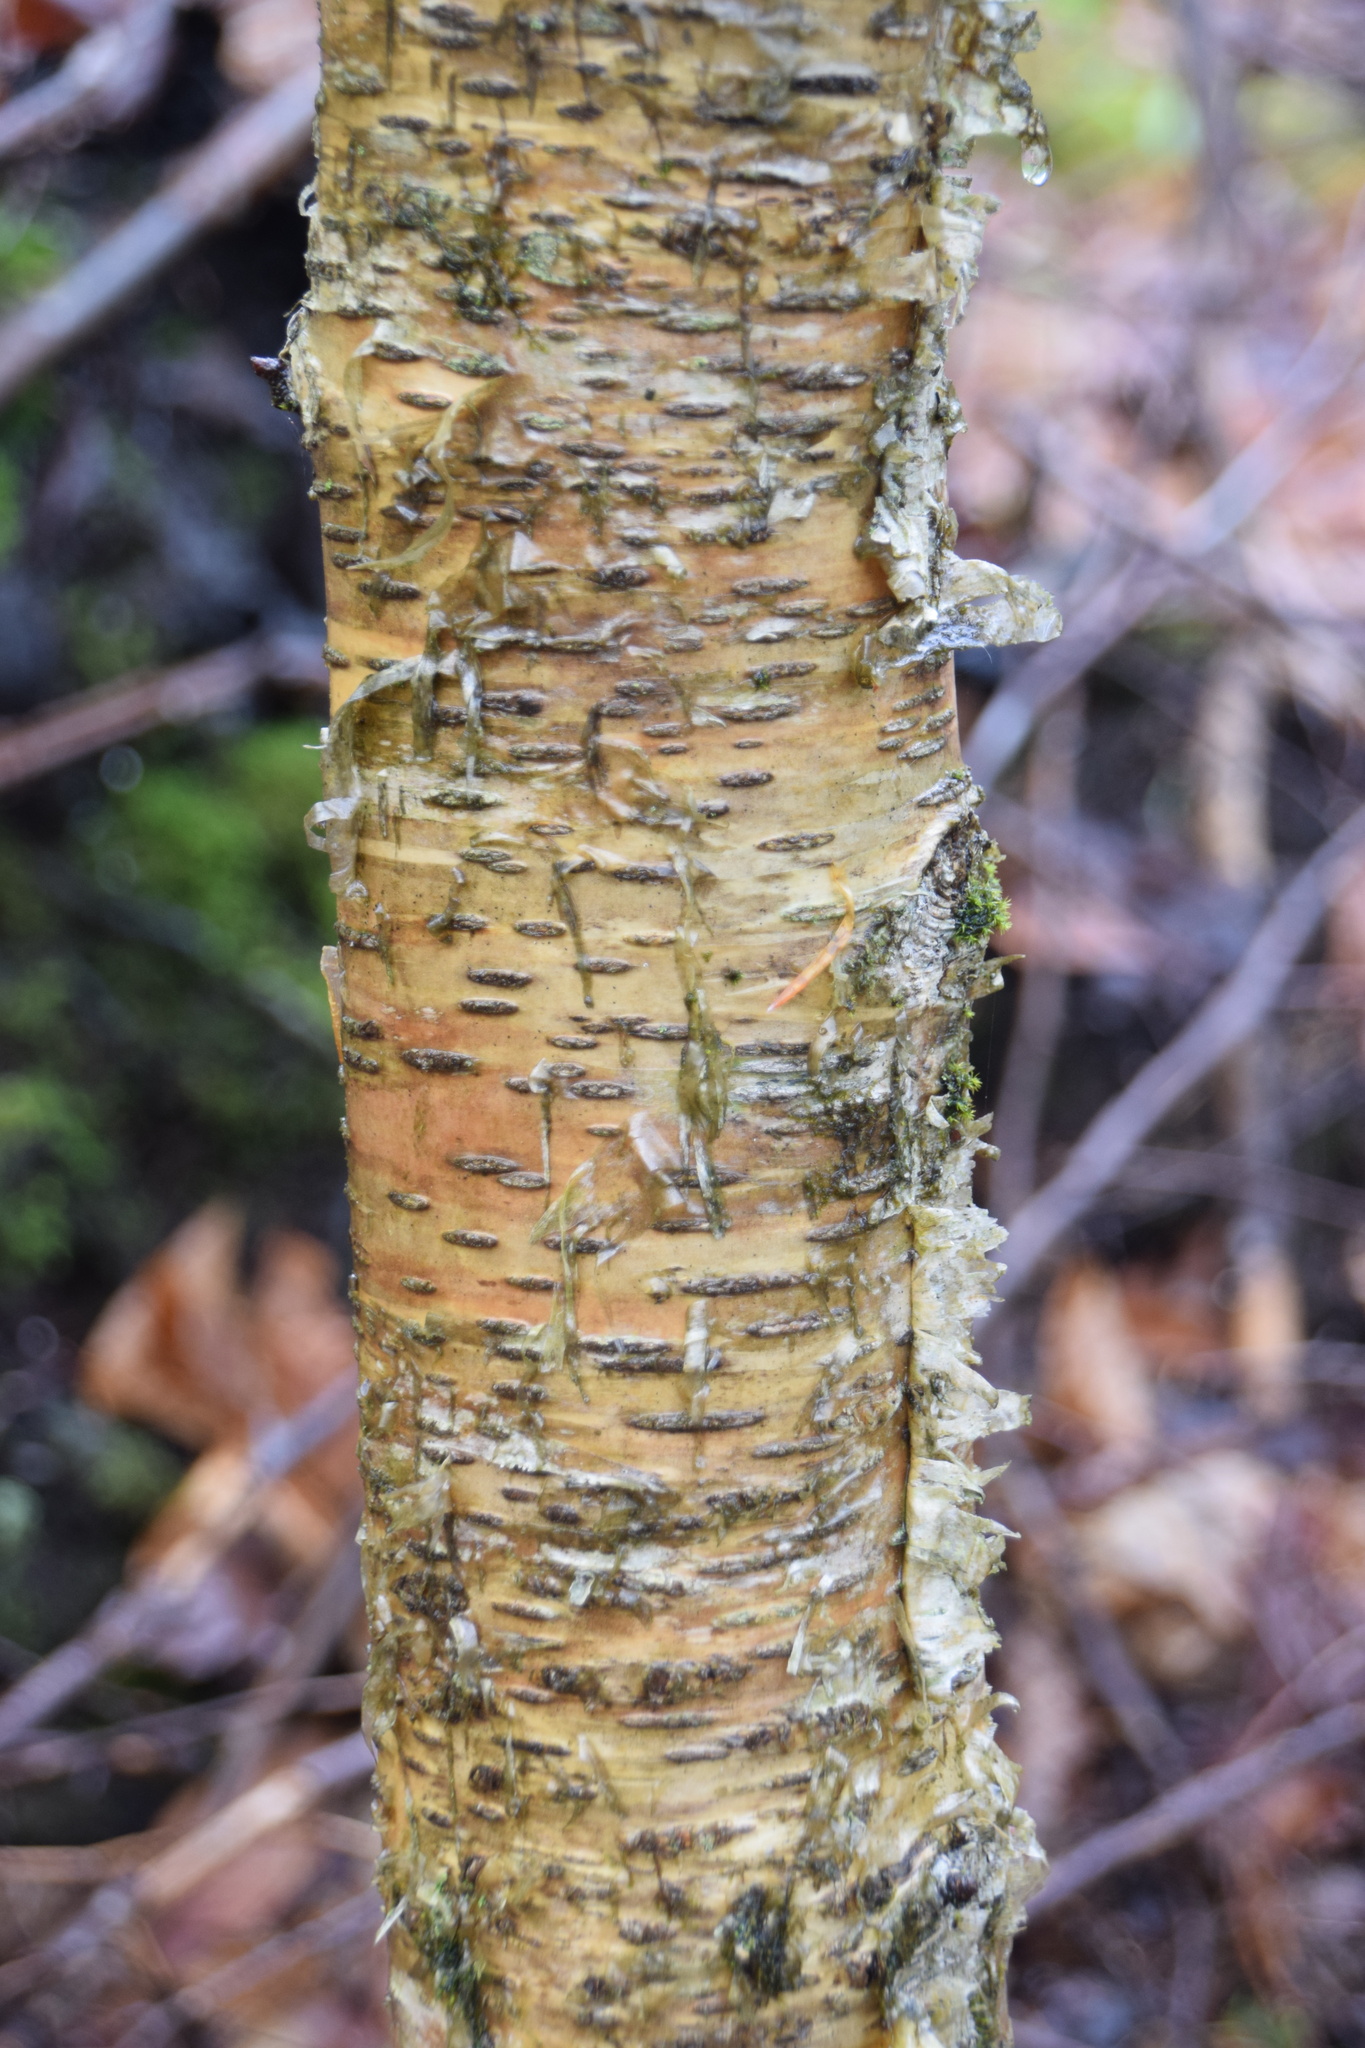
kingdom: Plantae
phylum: Tracheophyta
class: Magnoliopsida
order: Fagales
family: Betulaceae
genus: Betula
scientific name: Betula alleghaniensis
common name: Yellow birch
